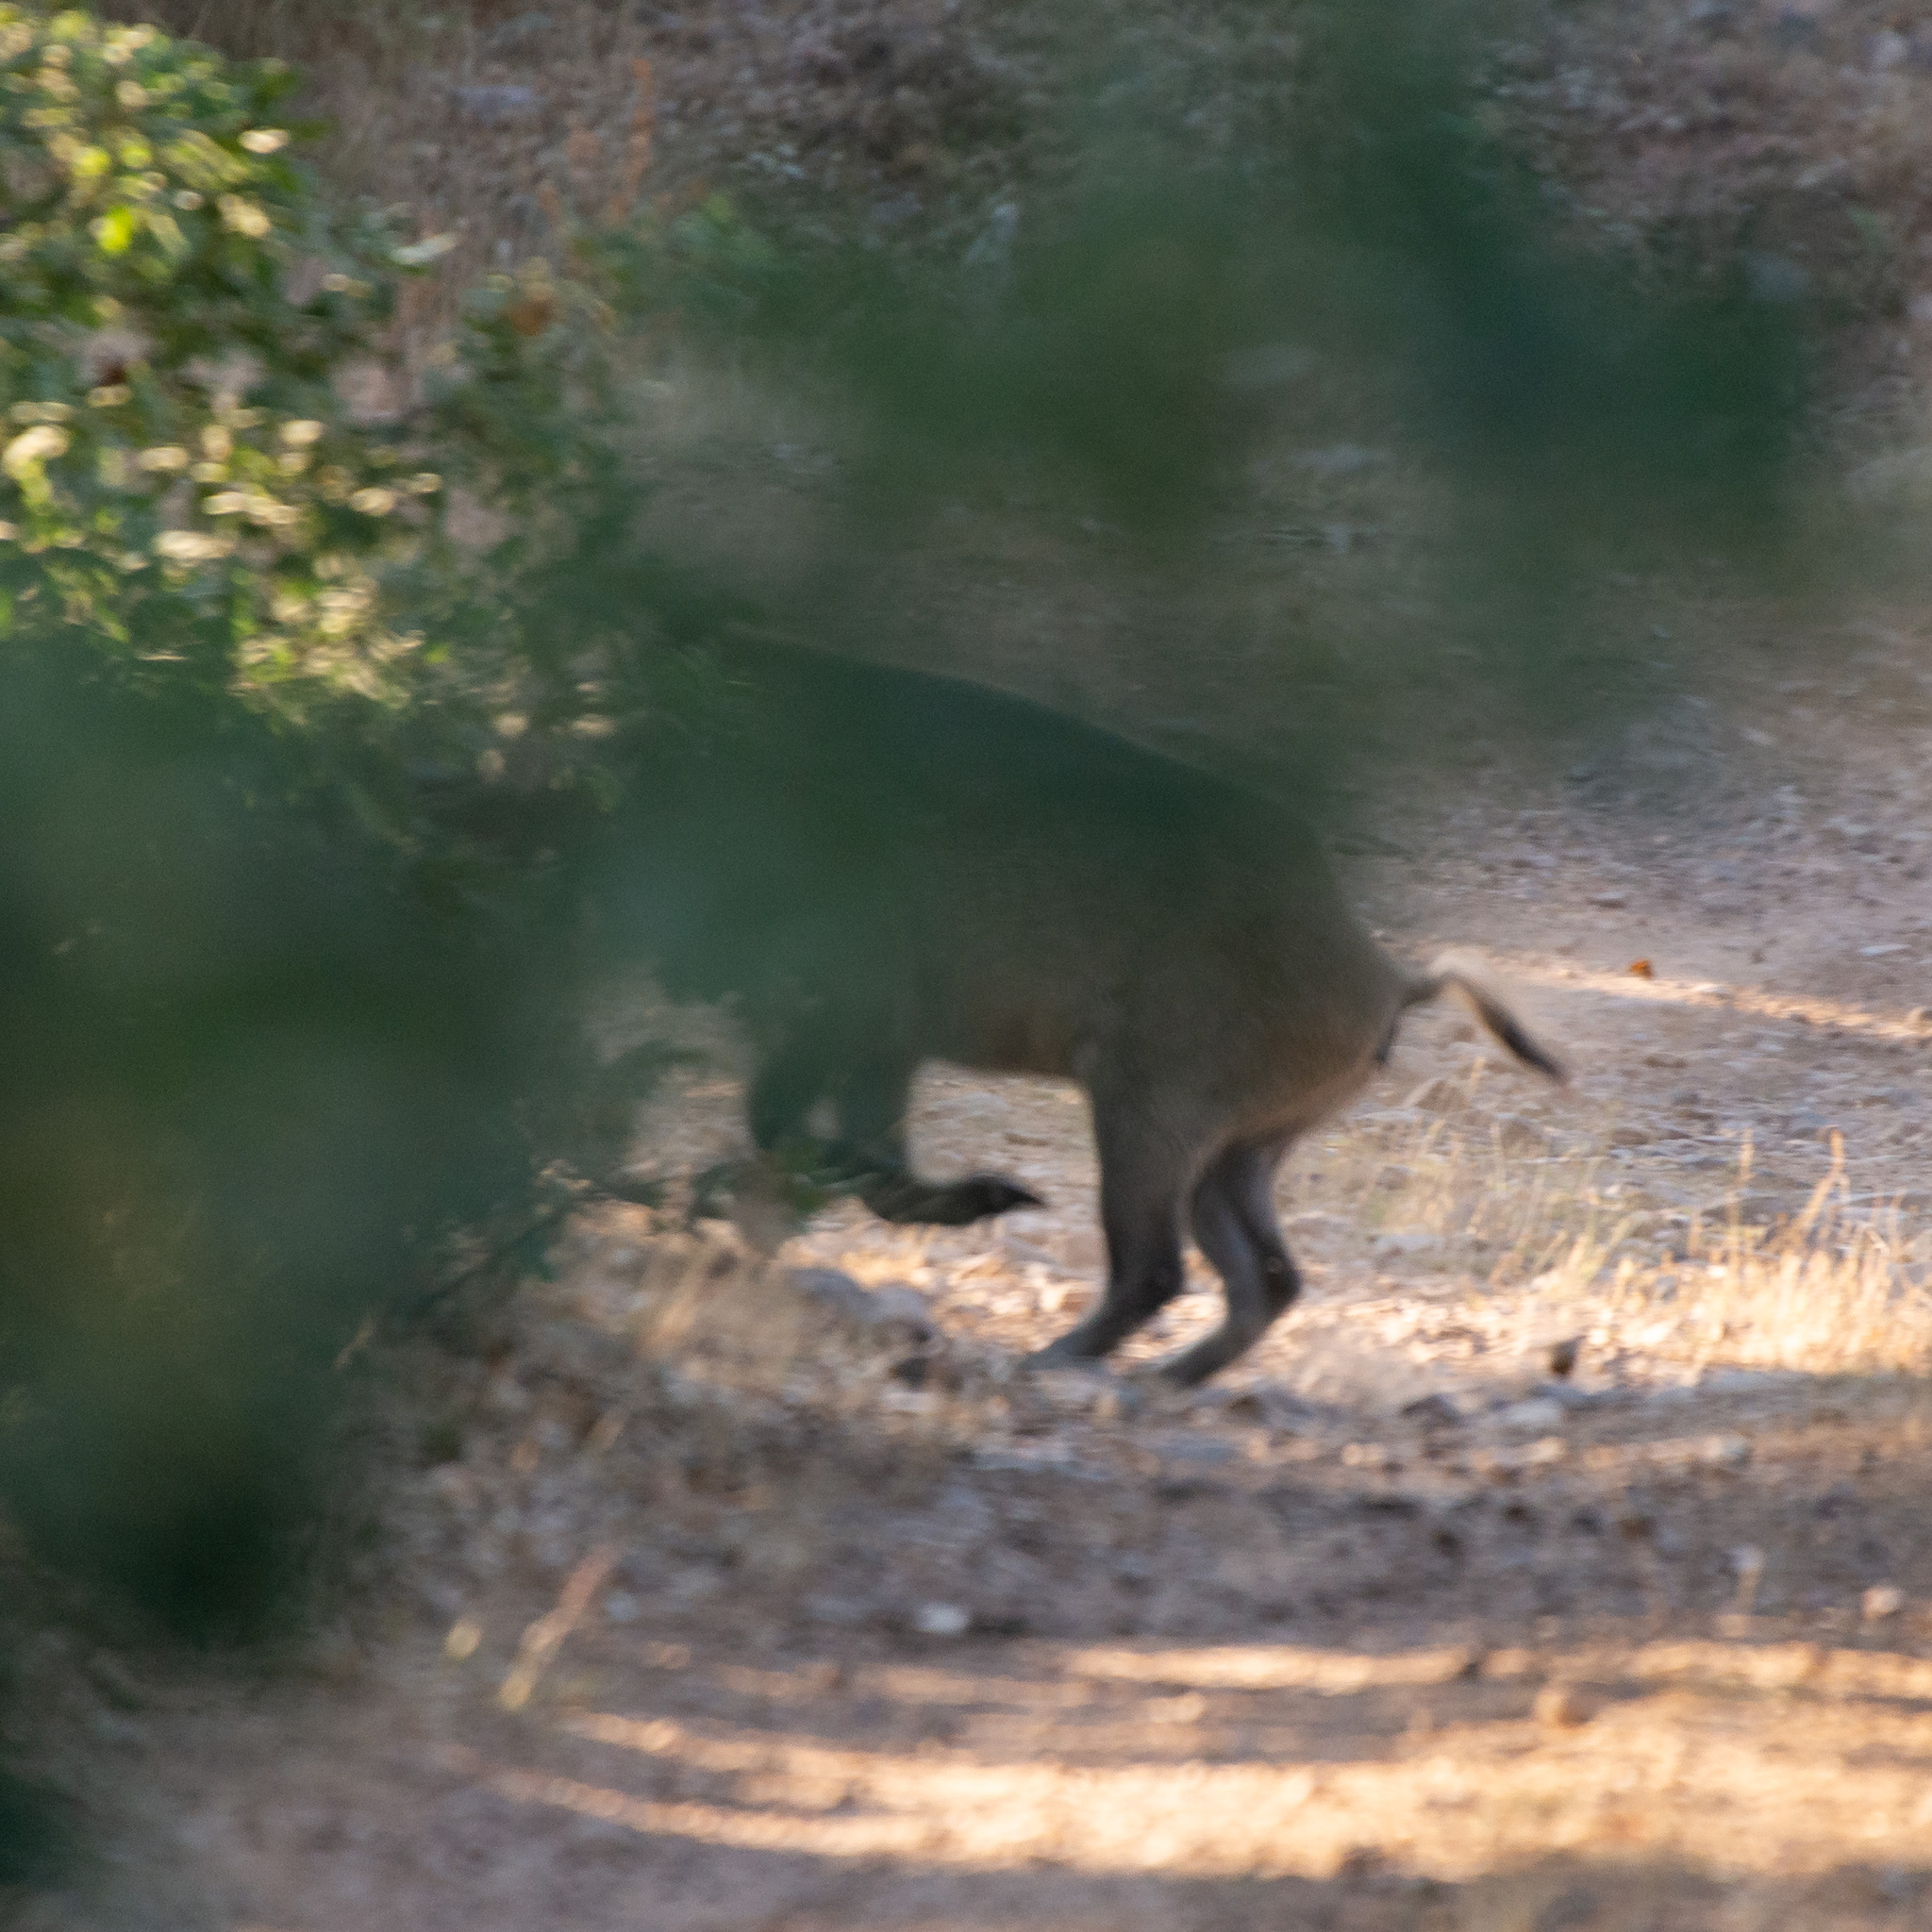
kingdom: Animalia
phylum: Chordata
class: Mammalia
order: Artiodactyla
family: Suidae
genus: Sus
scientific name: Sus scrofa
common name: Wild boar
